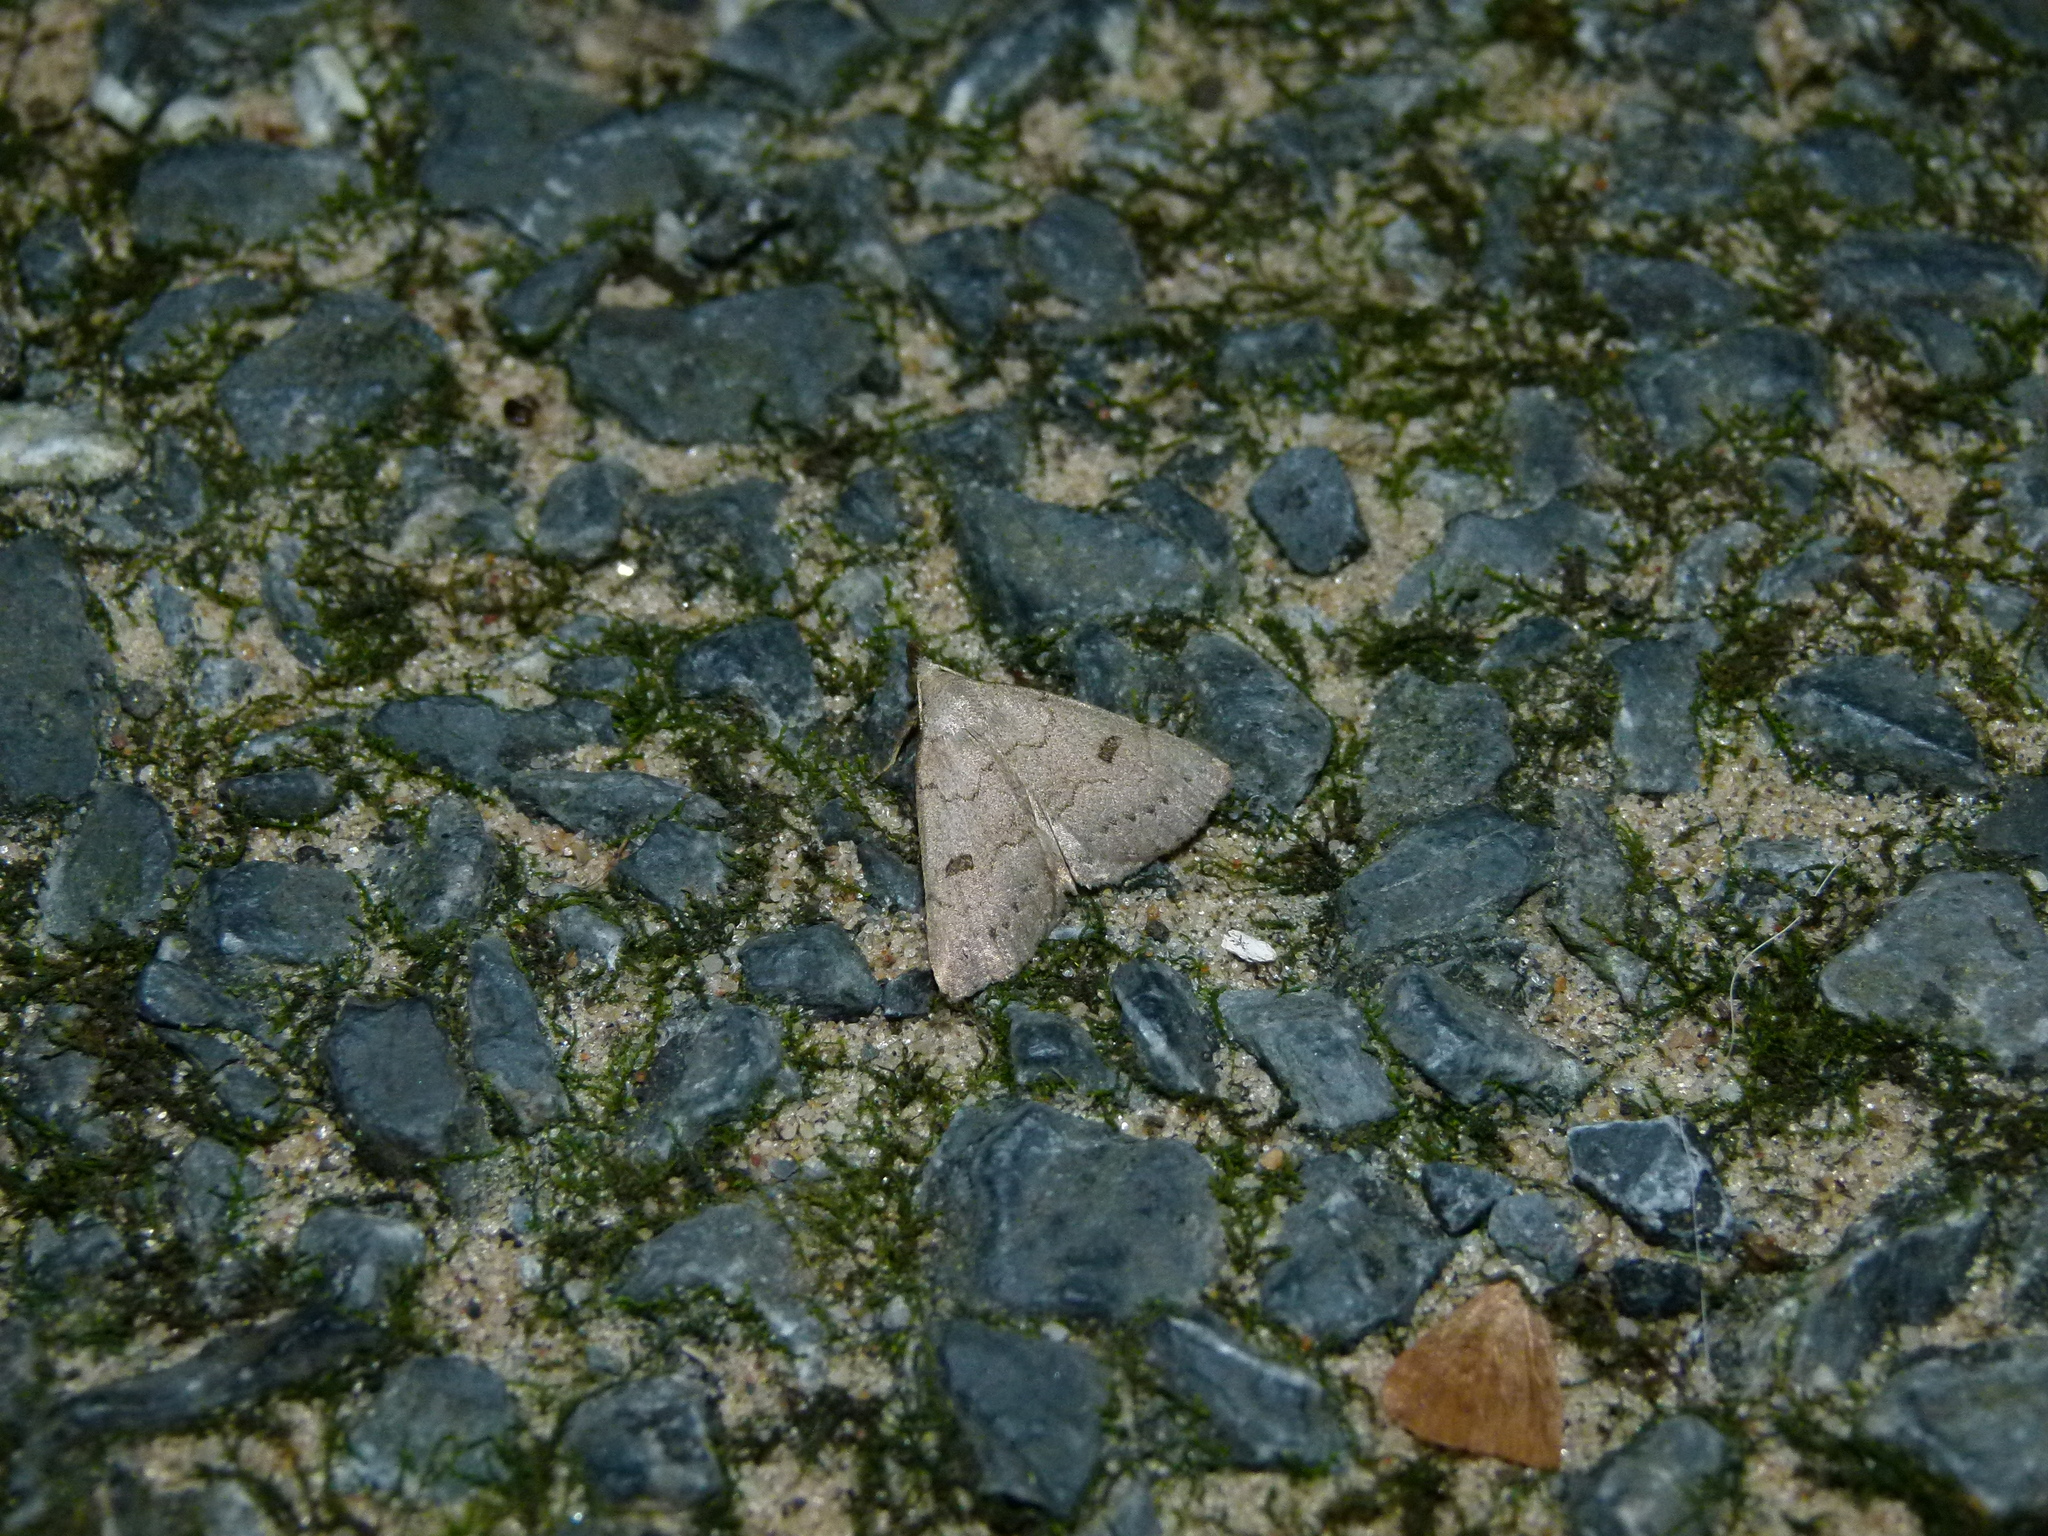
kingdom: Animalia
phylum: Arthropoda
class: Insecta
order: Lepidoptera
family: Erebidae
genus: Macrochilo
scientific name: Macrochilo morbidalis
